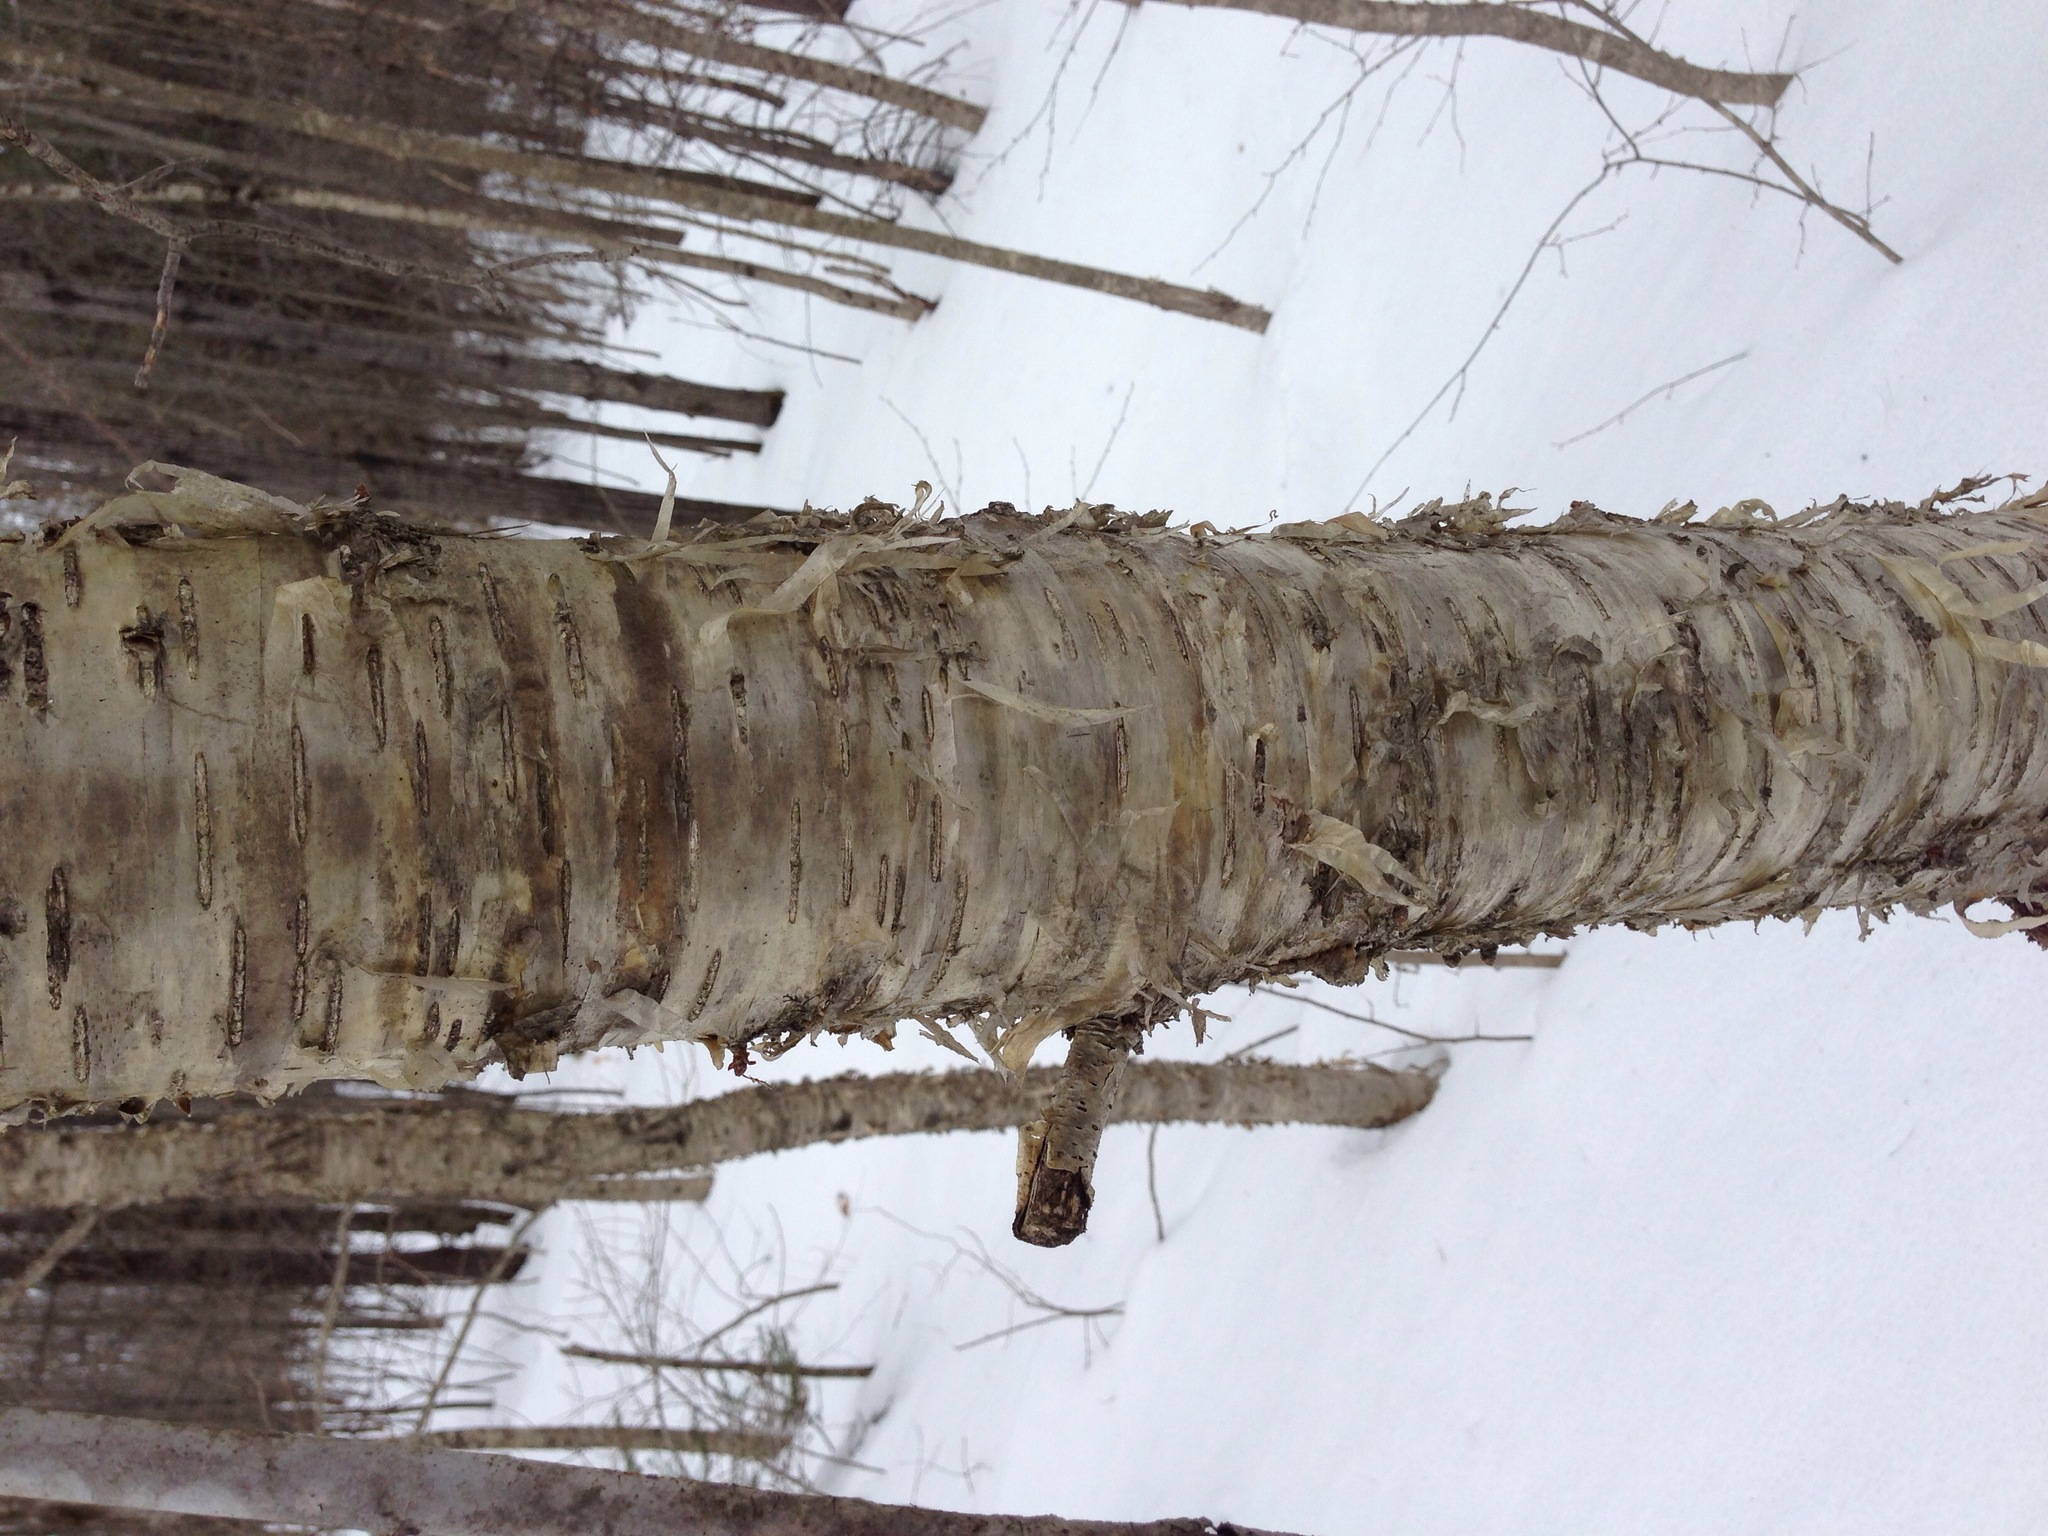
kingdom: Plantae
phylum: Tracheophyta
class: Magnoliopsida
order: Fagales
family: Betulaceae
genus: Betula
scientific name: Betula alleghaniensis
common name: Yellow birch
